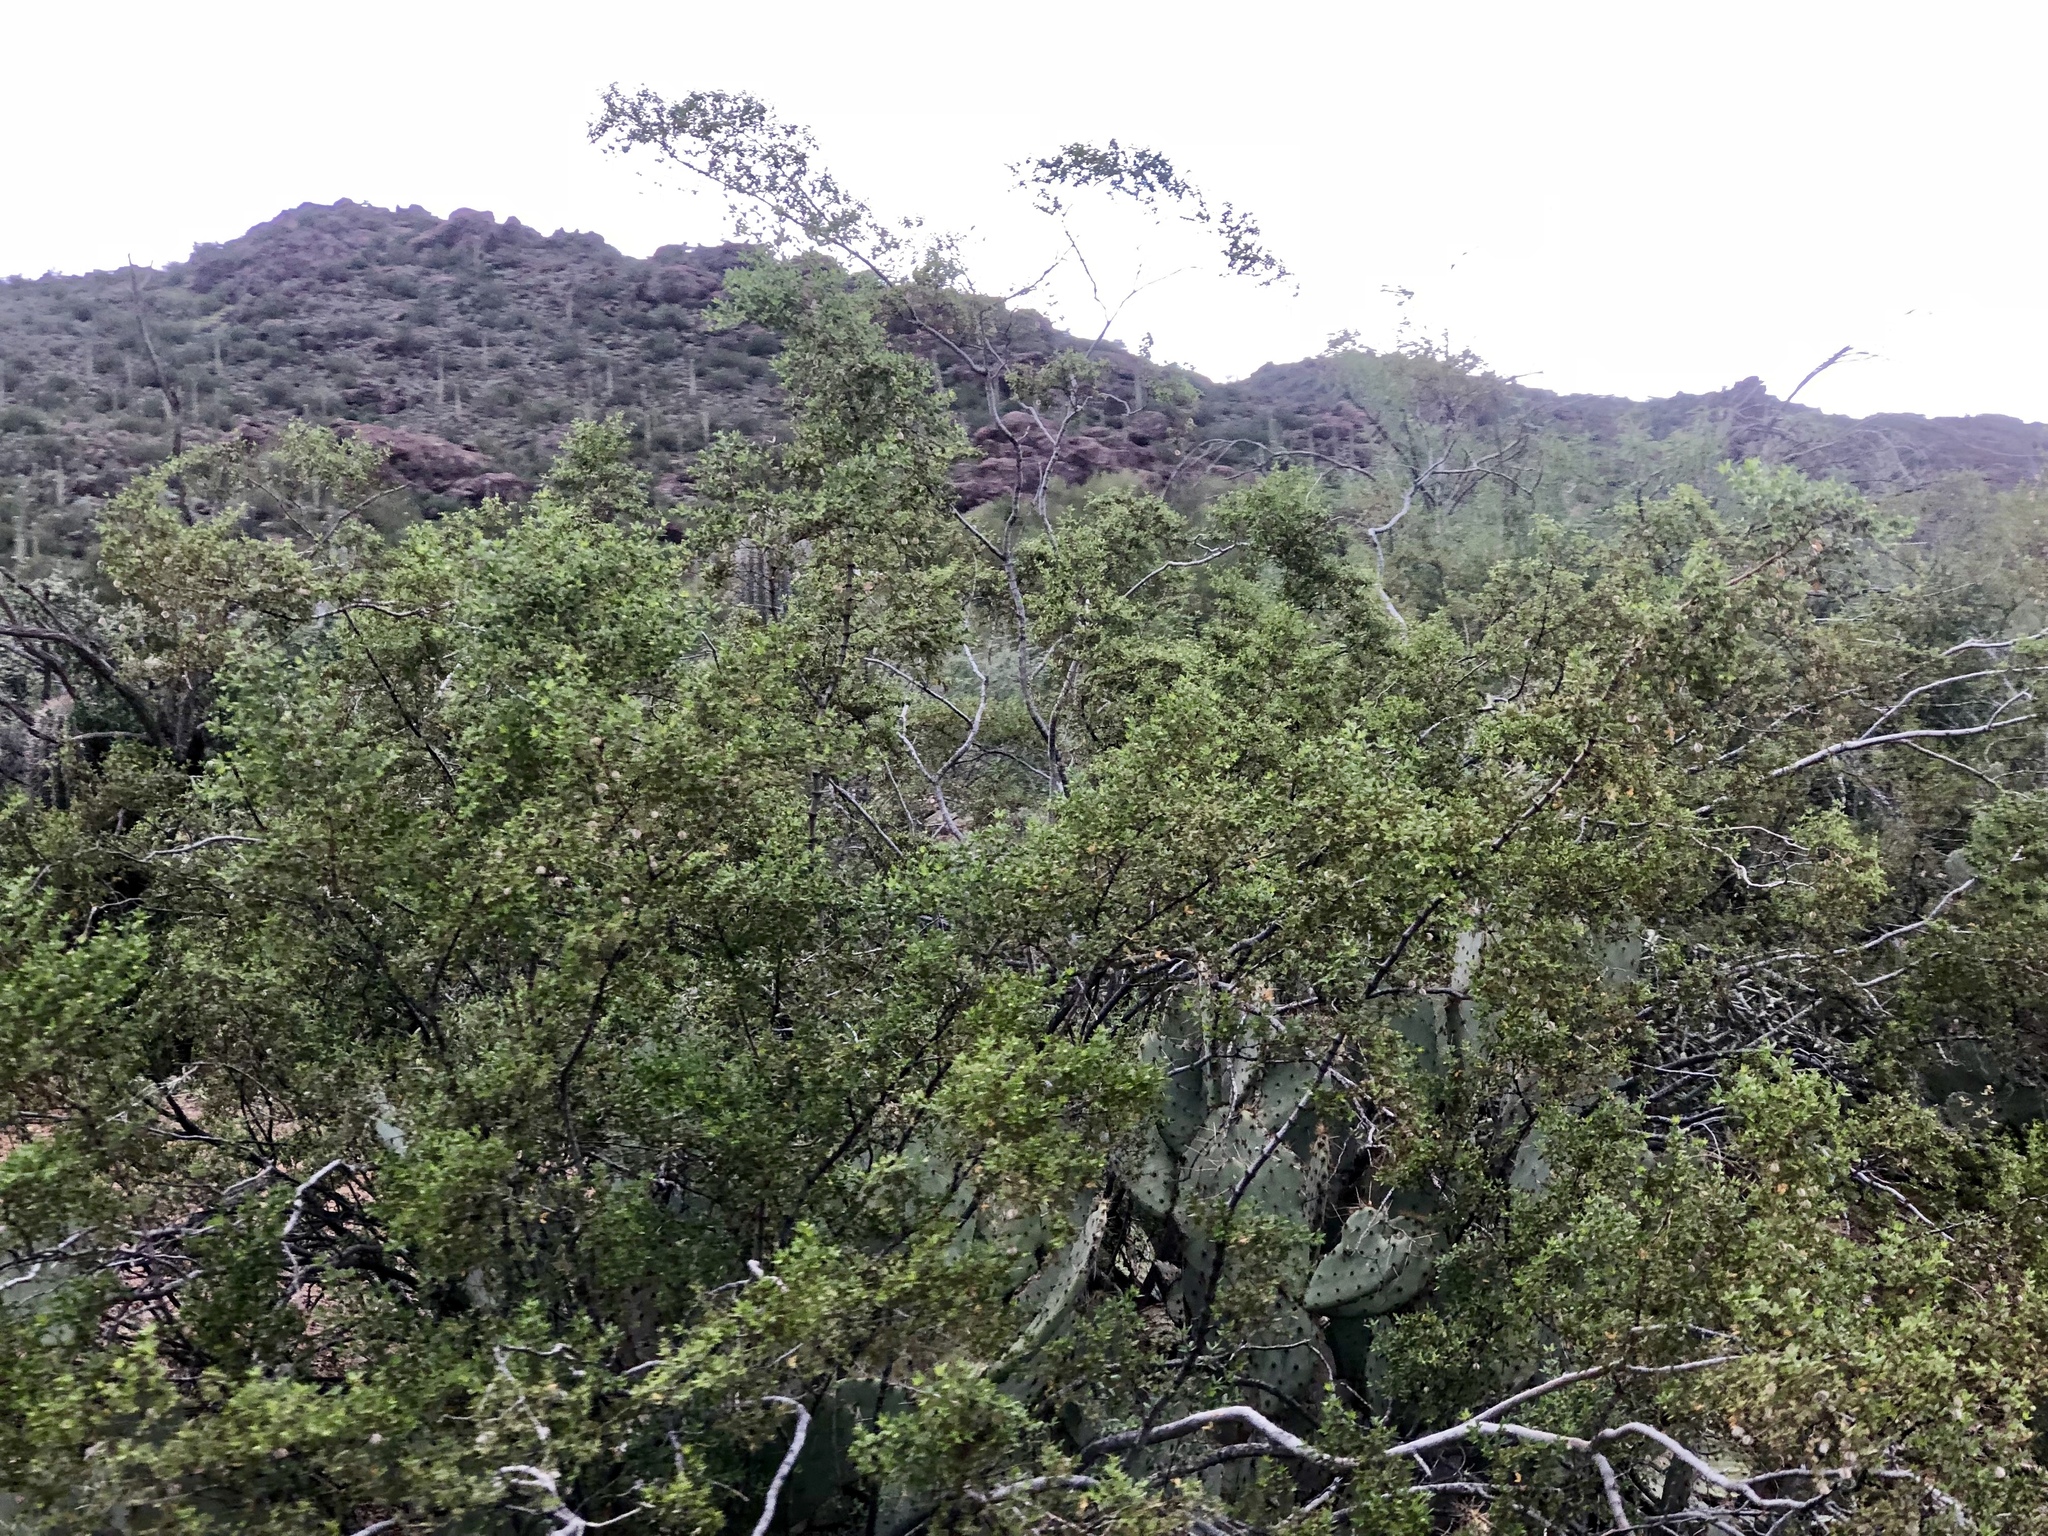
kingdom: Plantae
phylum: Tracheophyta
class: Magnoliopsida
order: Zygophyllales
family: Zygophyllaceae
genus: Larrea
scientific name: Larrea tridentata
